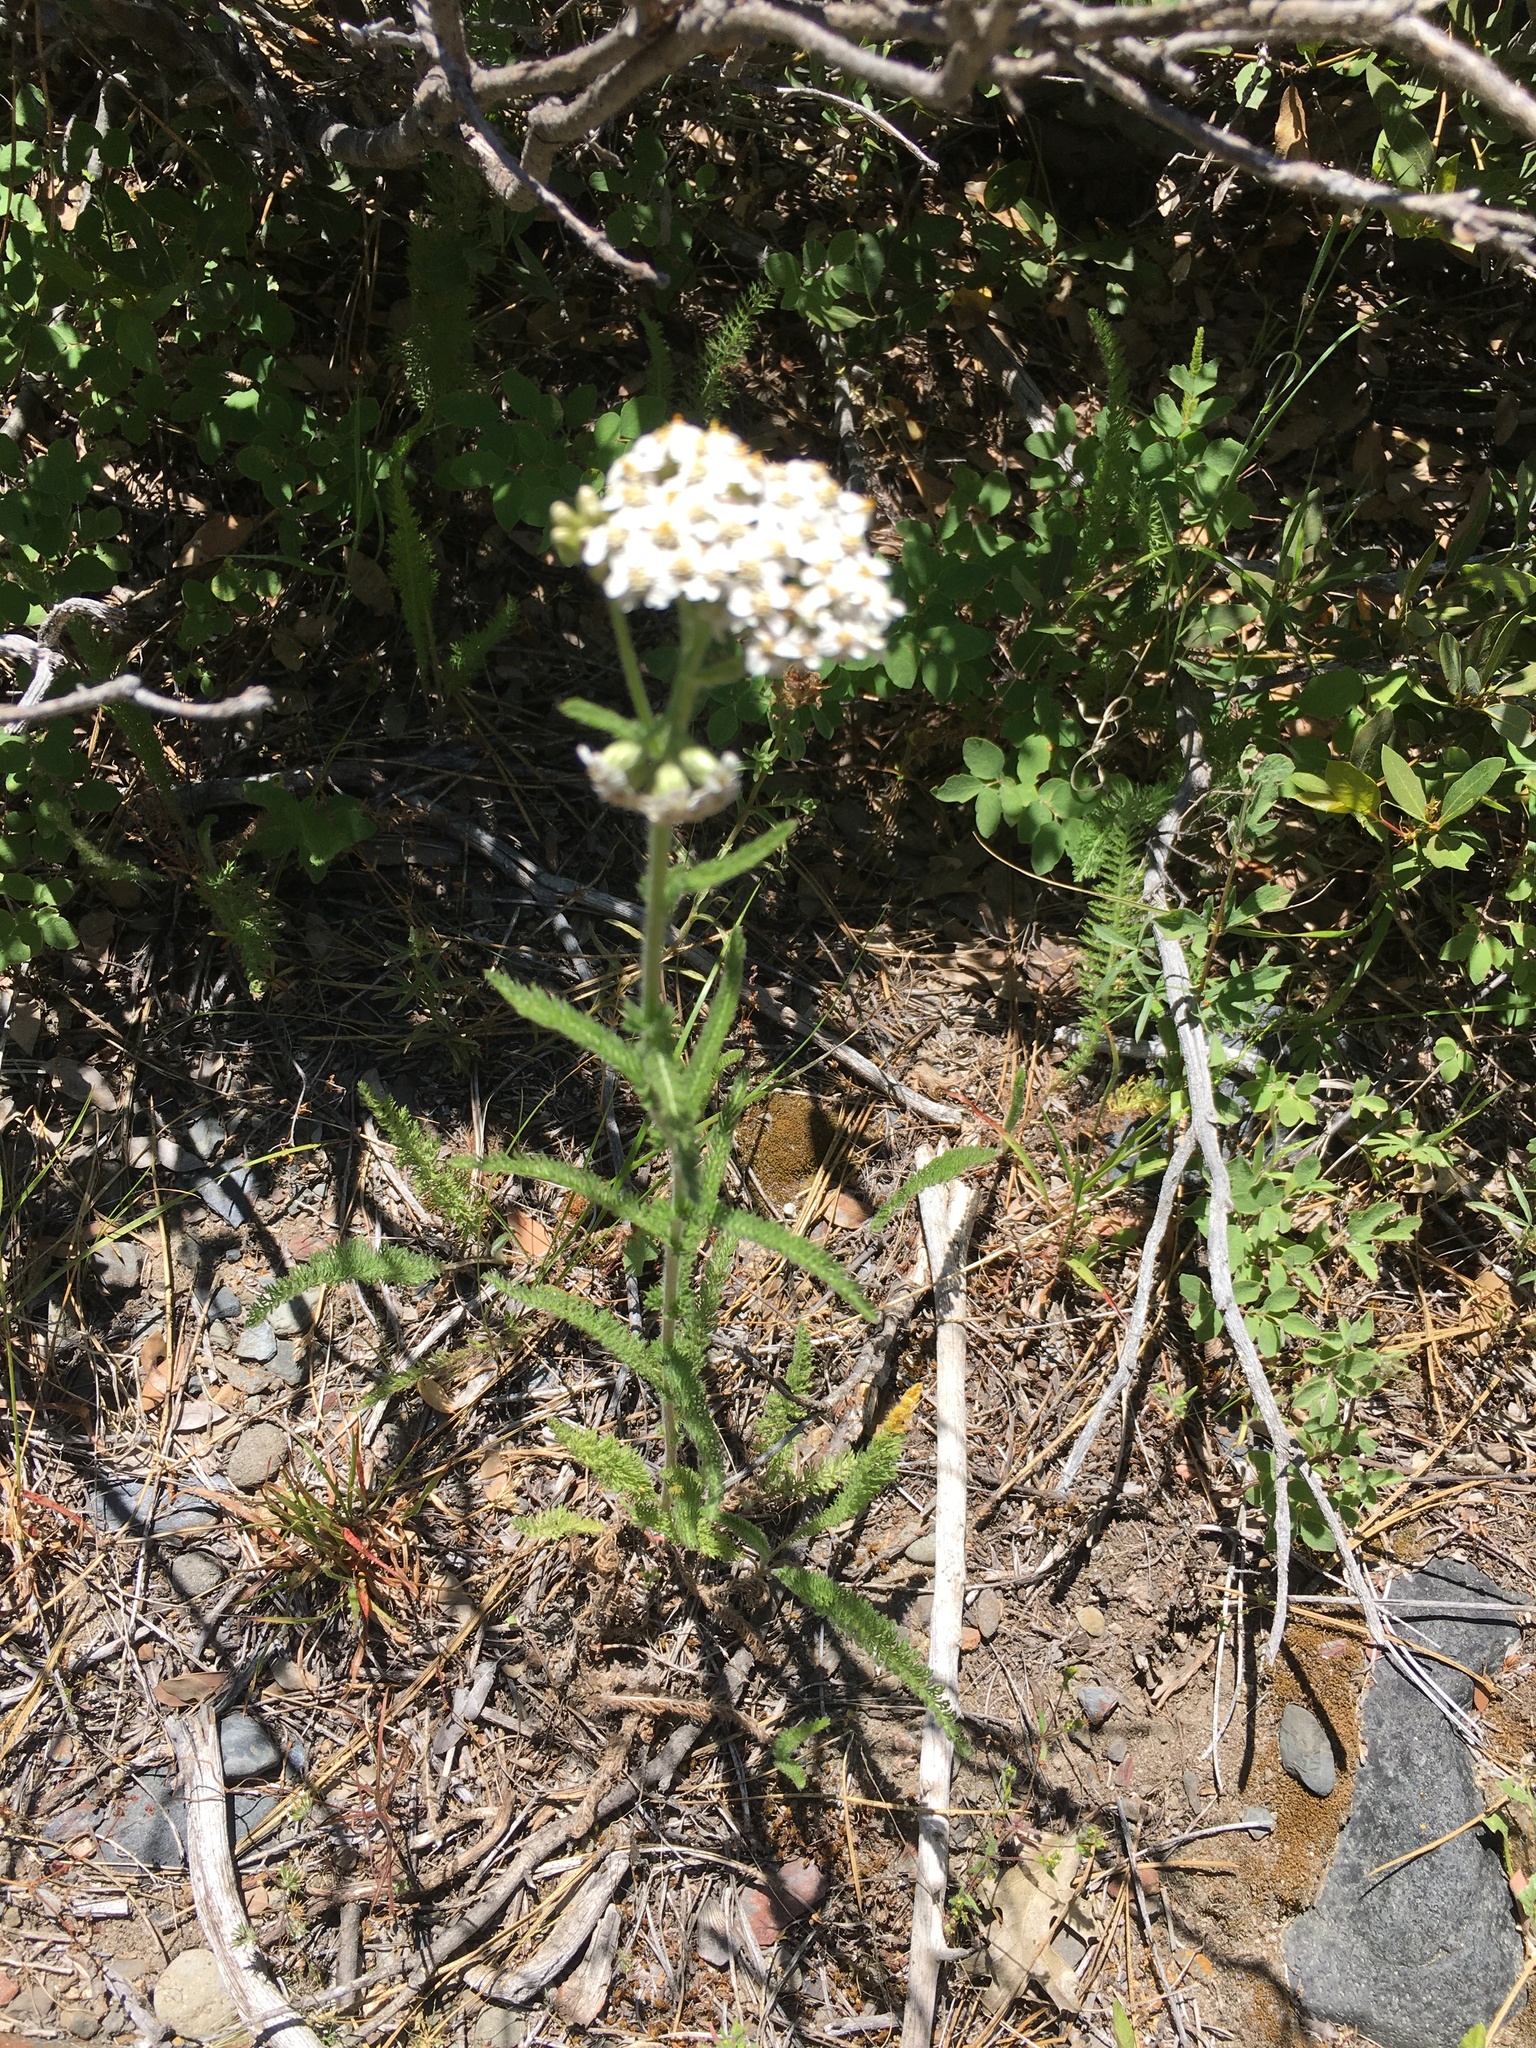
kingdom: Plantae
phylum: Tracheophyta
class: Magnoliopsida
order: Asterales
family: Asteraceae
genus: Achillea
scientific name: Achillea millefolium
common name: Yarrow
